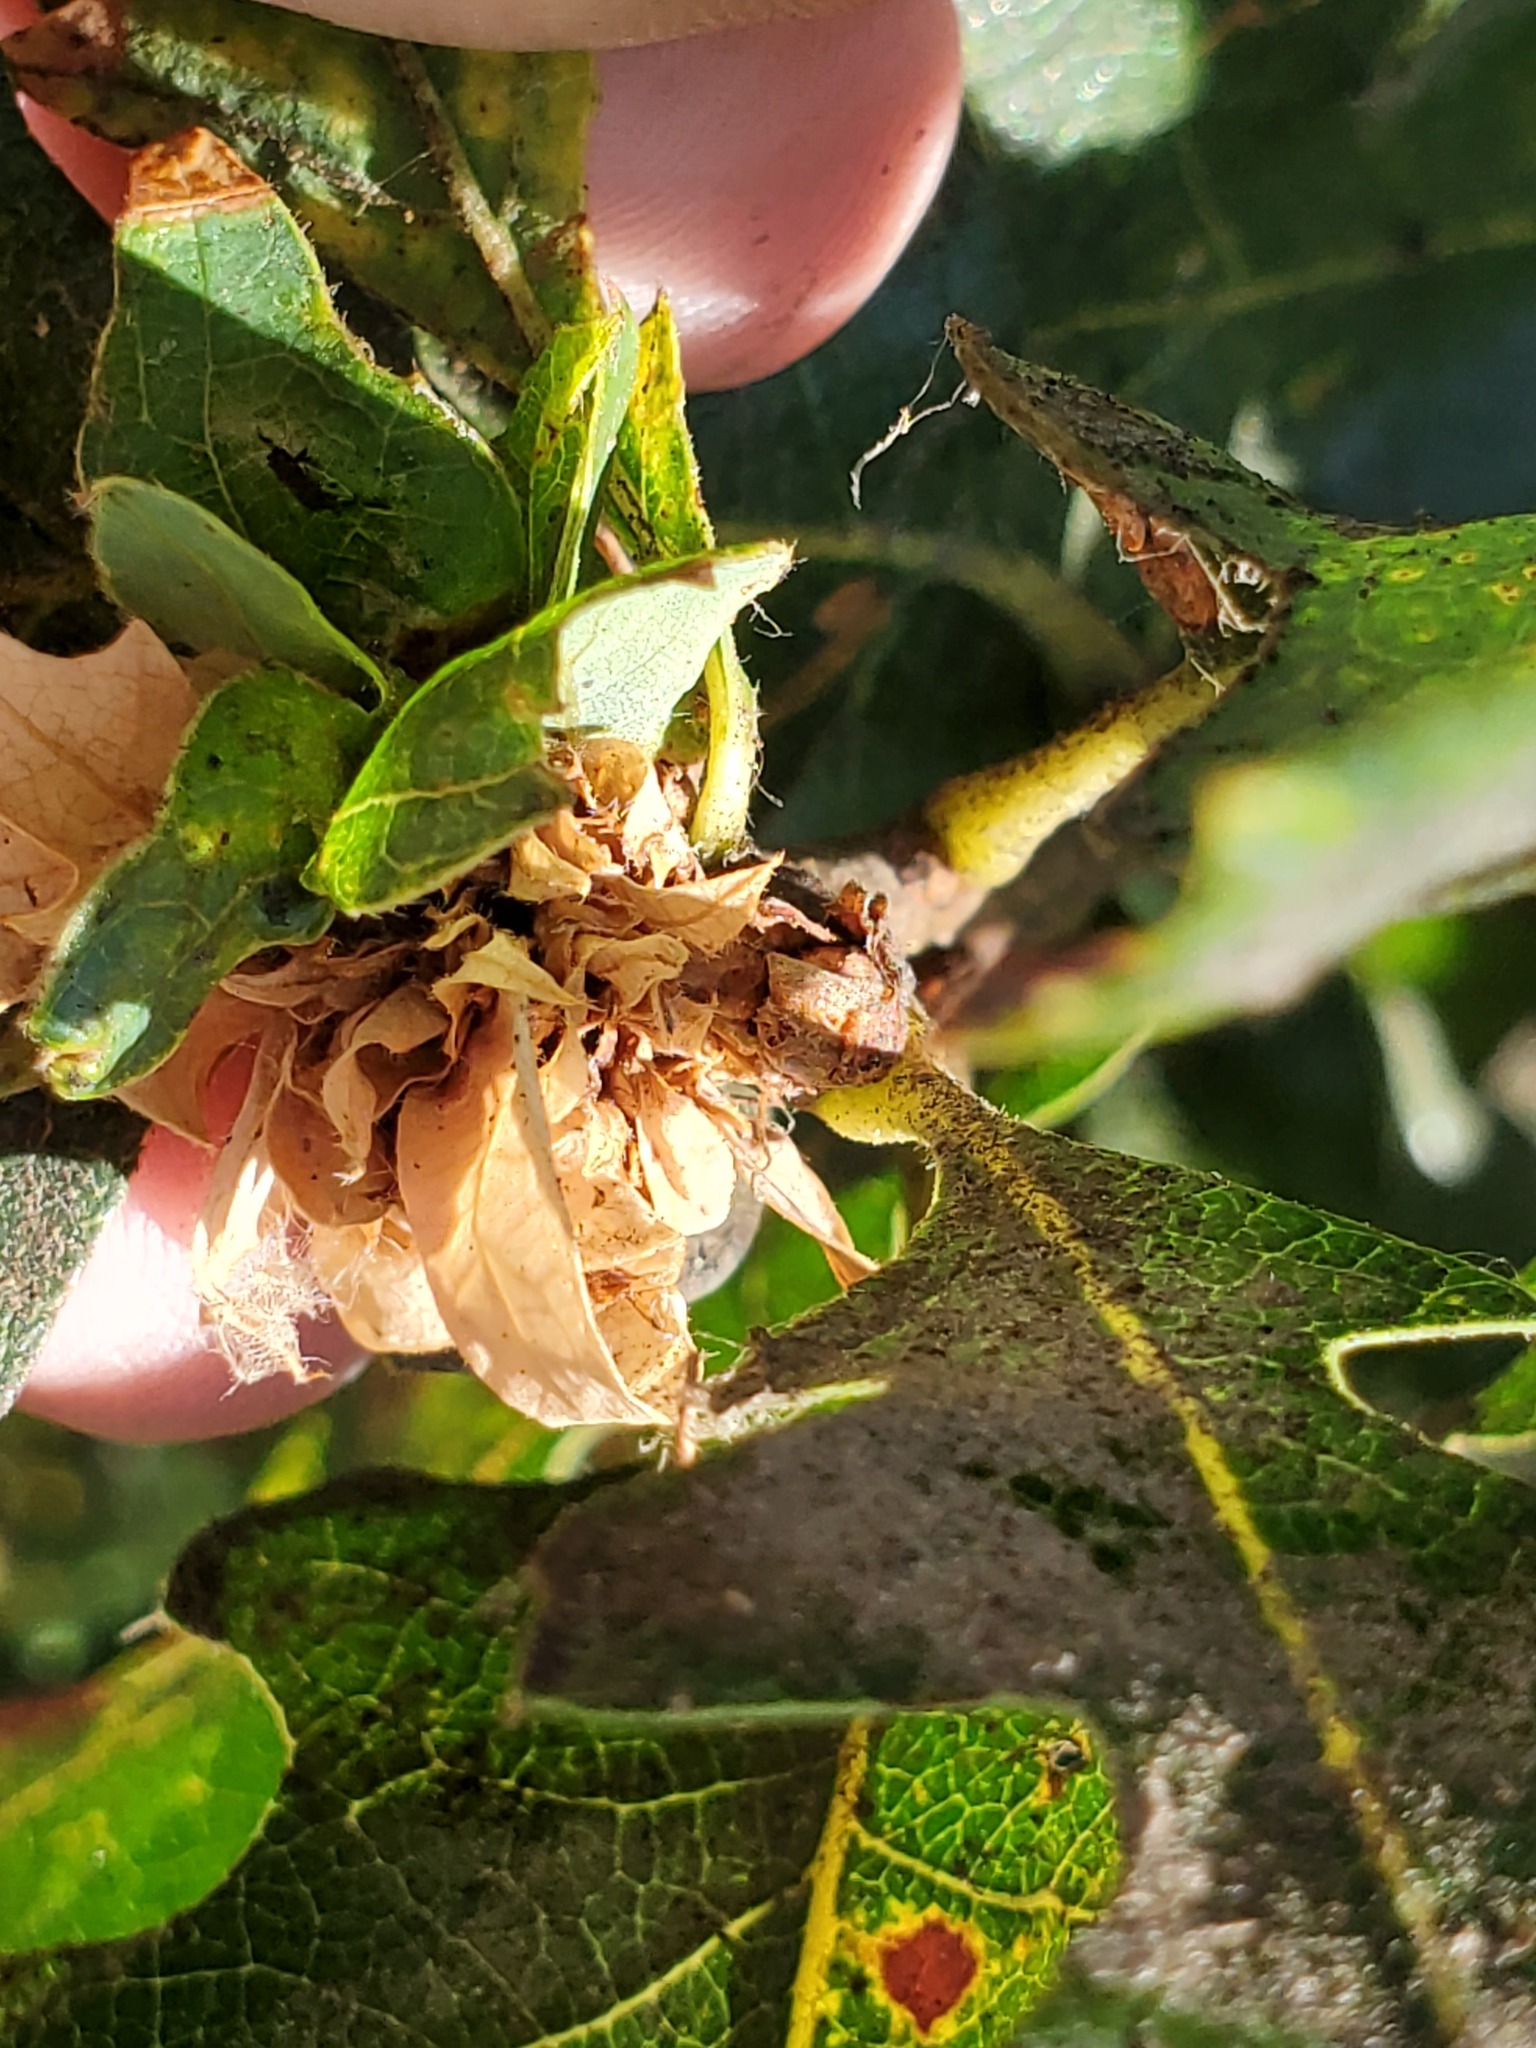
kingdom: Animalia
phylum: Arthropoda
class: Insecta
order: Hymenoptera
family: Cynipidae
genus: Andricus
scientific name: Andricus
